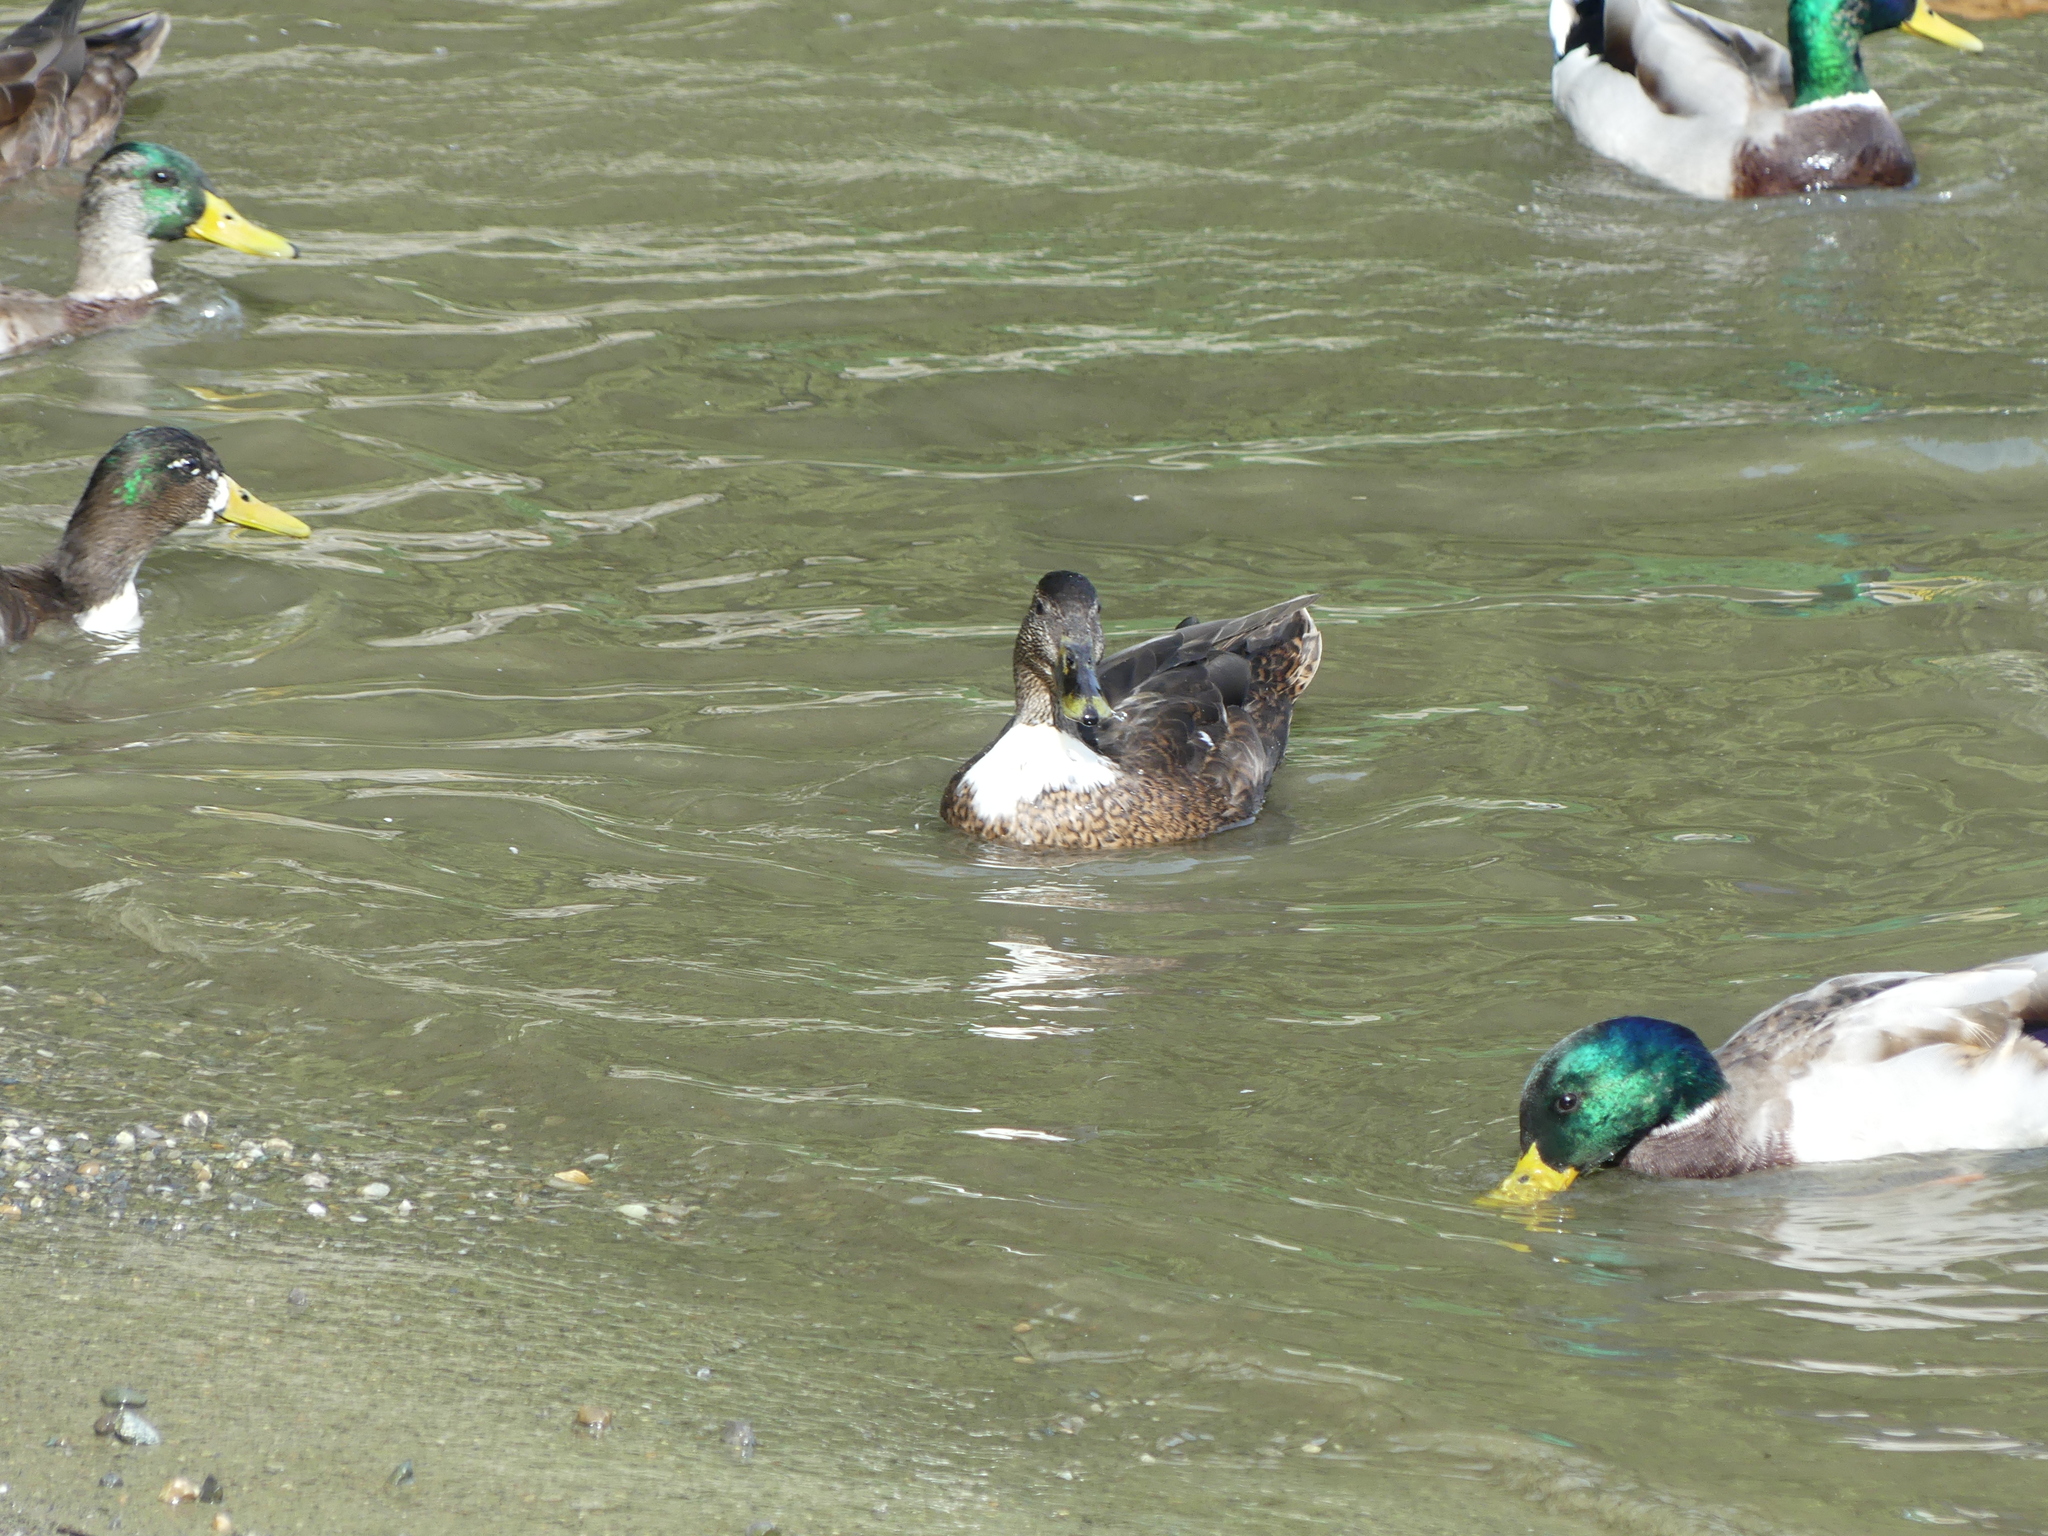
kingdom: Animalia
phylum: Chordata
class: Aves
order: Anseriformes
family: Anatidae
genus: Anas
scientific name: Anas platyrhynchos
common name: Mallard
